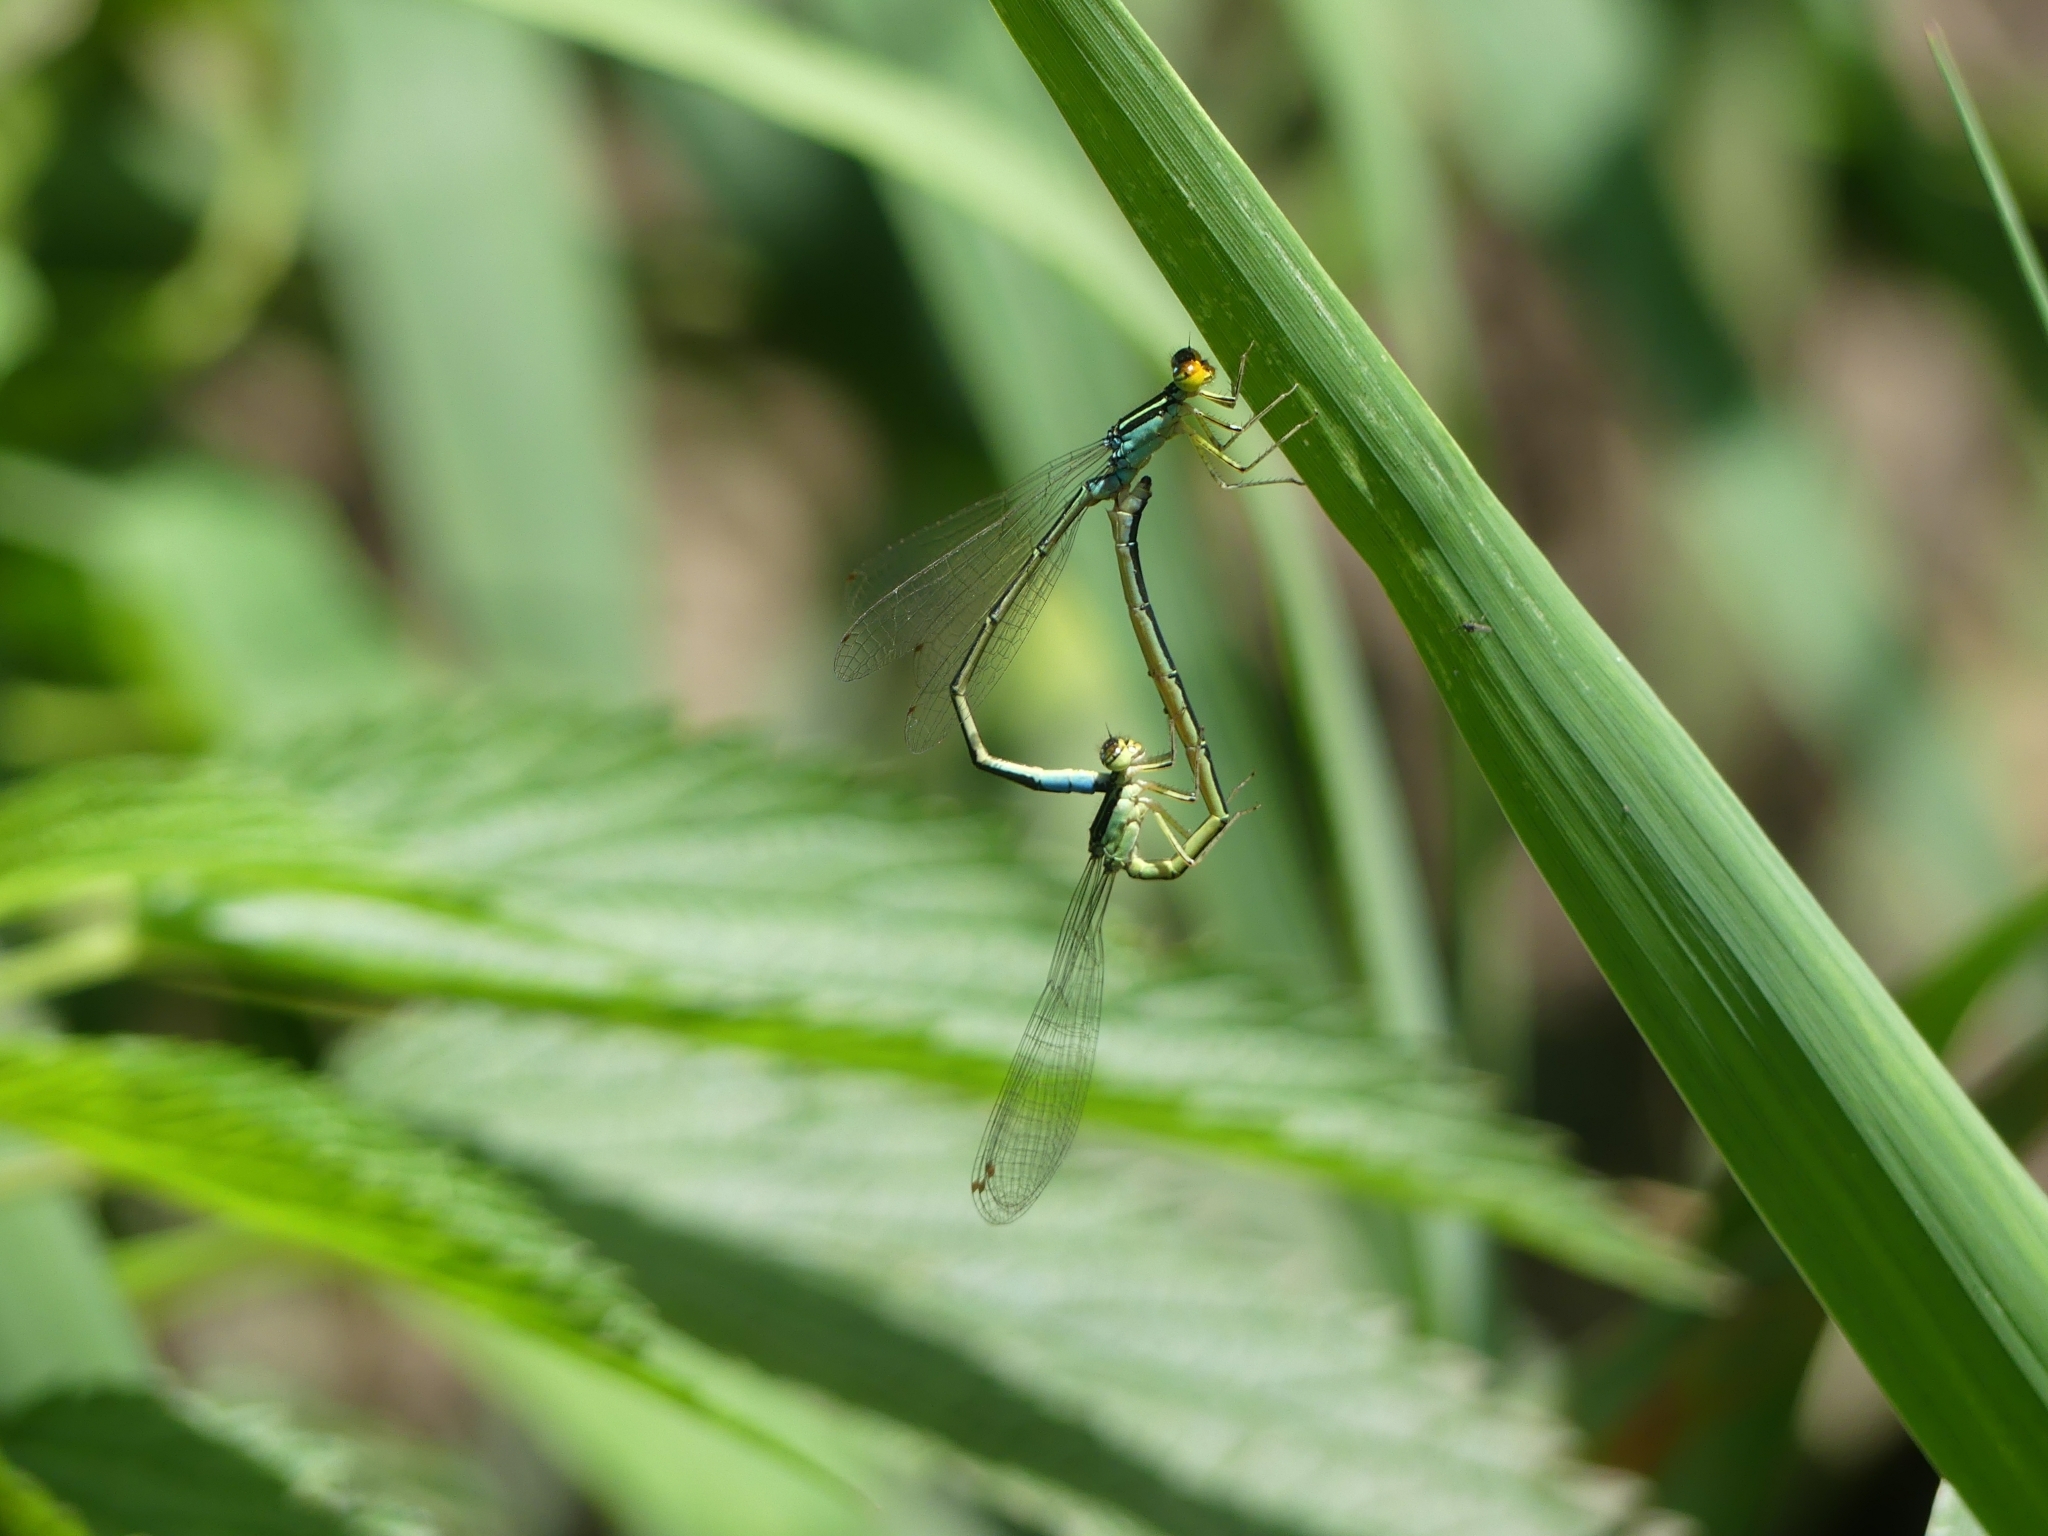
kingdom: Animalia
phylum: Arthropoda
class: Insecta
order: Odonata
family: Coenagrionidae
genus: Enallagma
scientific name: Enallagma antennatum
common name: Rainbow bluet
